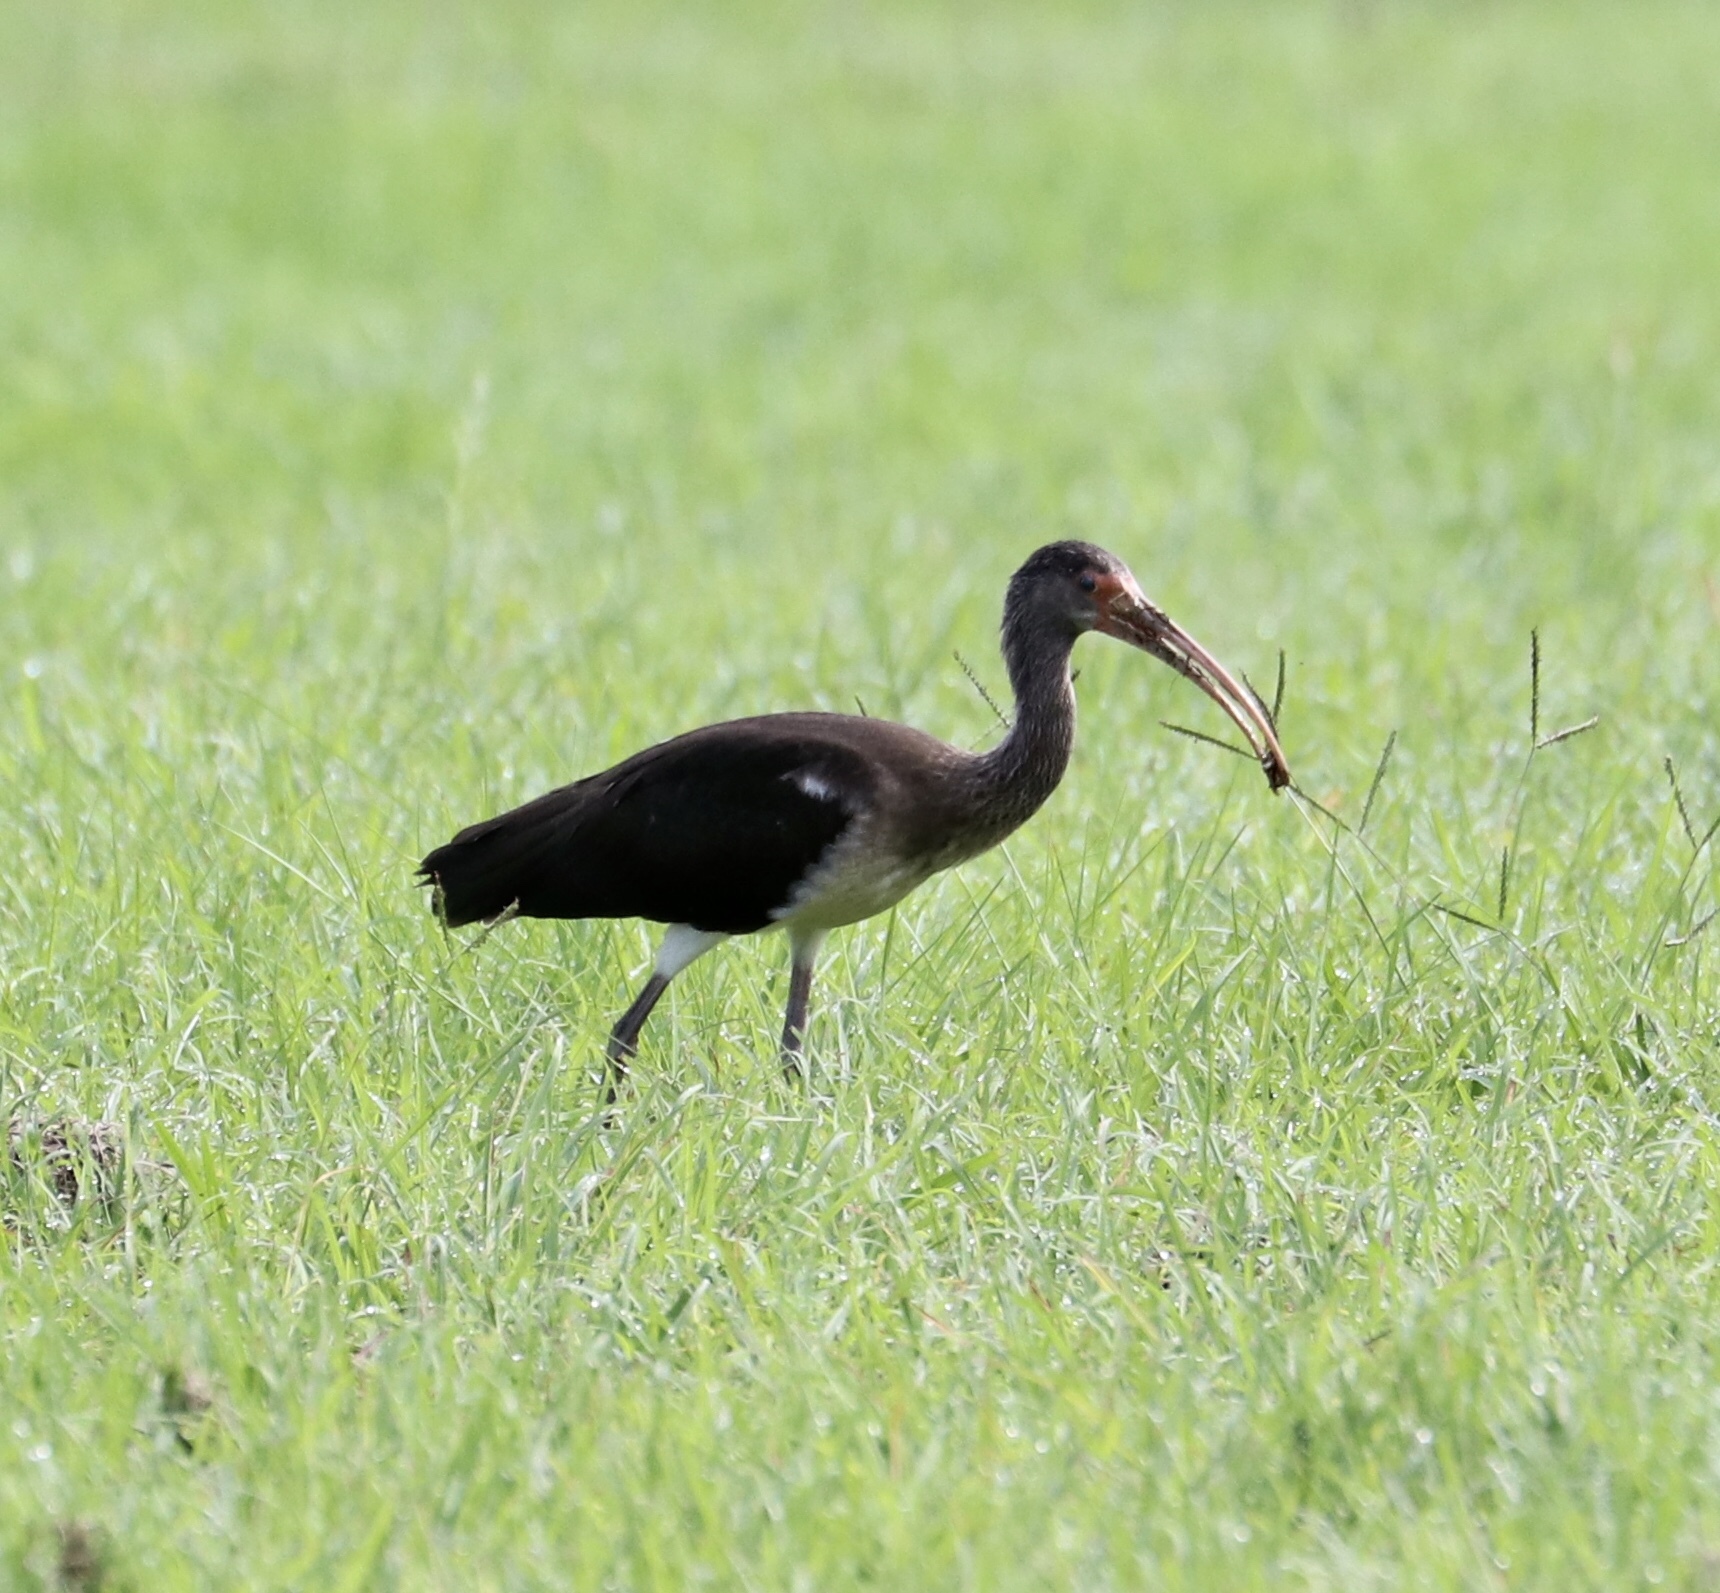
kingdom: Animalia
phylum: Chordata
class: Aves
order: Pelecaniformes
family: Threskiornithidae
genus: Eudocimus
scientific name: Eudocimus albus
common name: White ibis
